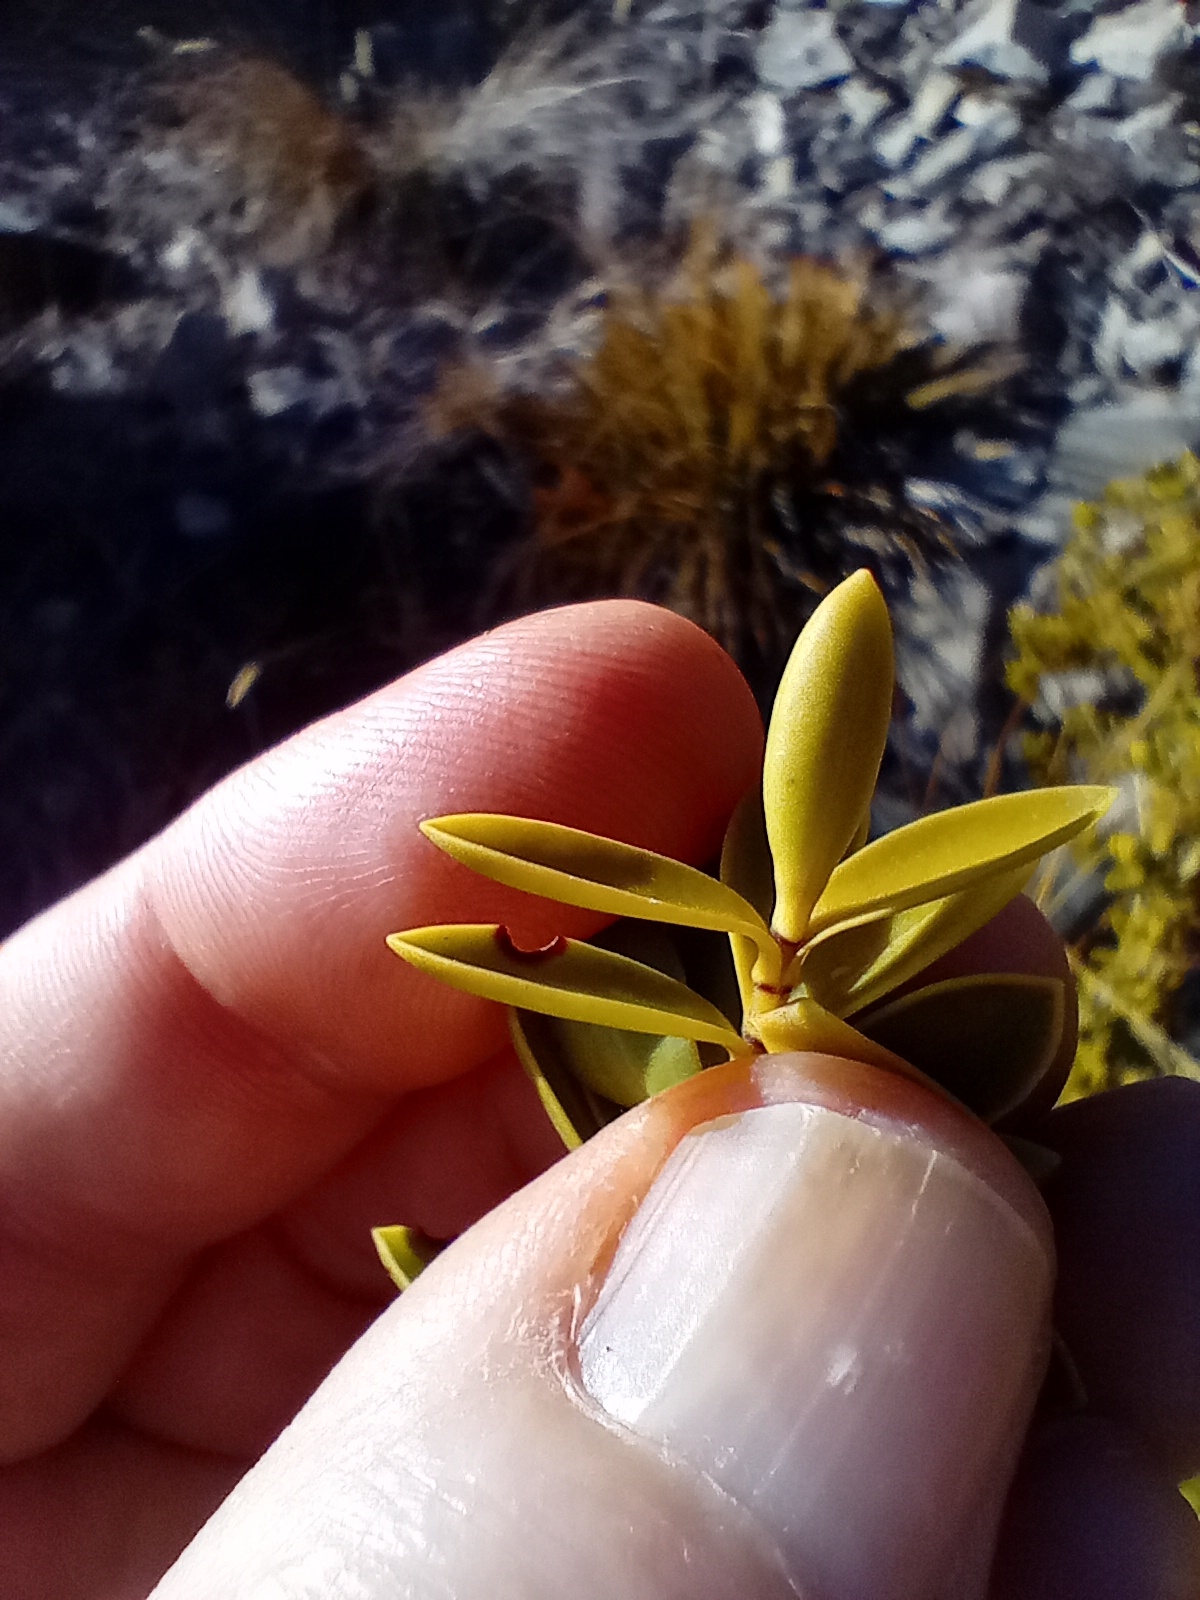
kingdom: Plantae
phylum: Tracheophyta
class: Magnoliopsida
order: Lamiales
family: Plantaginaceae
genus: Veronica
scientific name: Veronica rakaiensis
